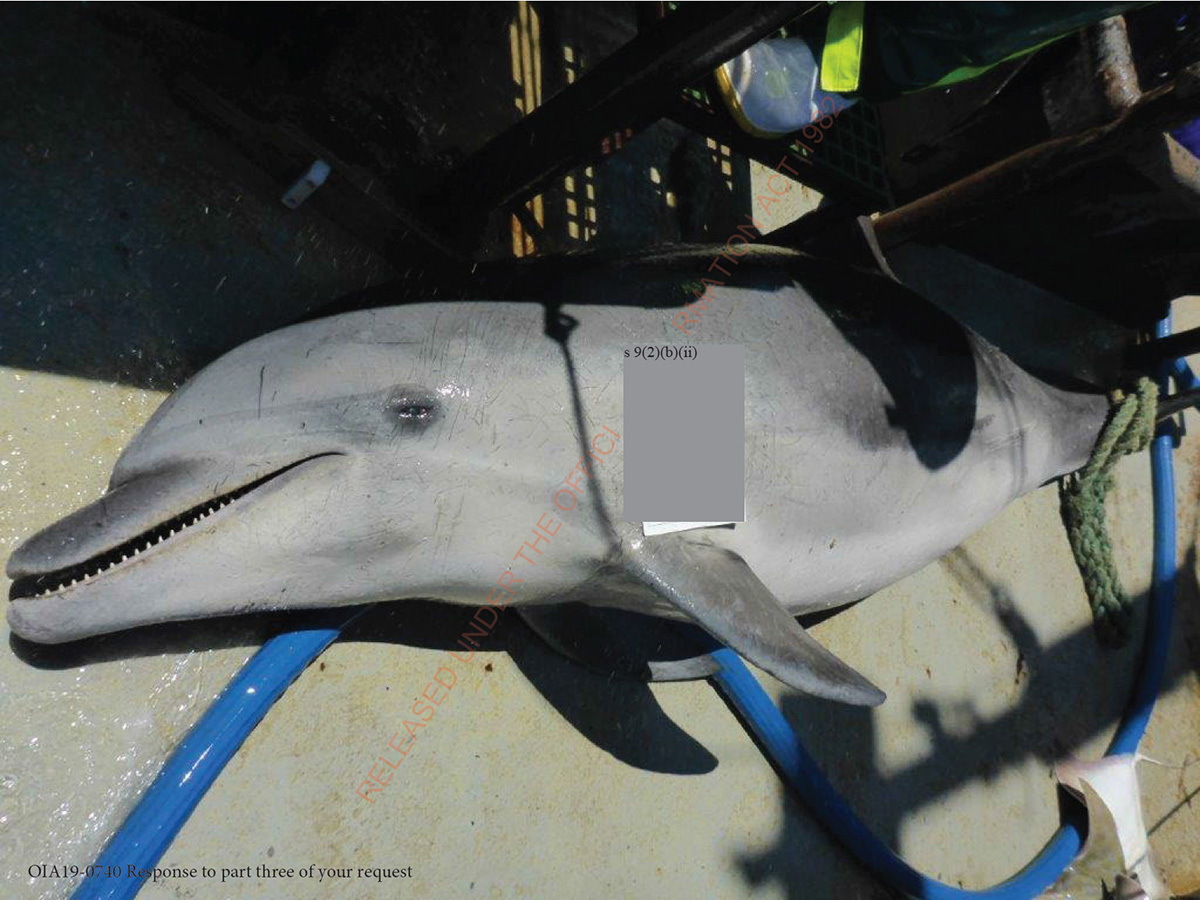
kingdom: Animalia
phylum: Chordata
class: Mammalia
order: Cetacea
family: Delphinidae
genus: Tursiops
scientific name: Tursiops truncatus
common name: Bottlenose dolphin
